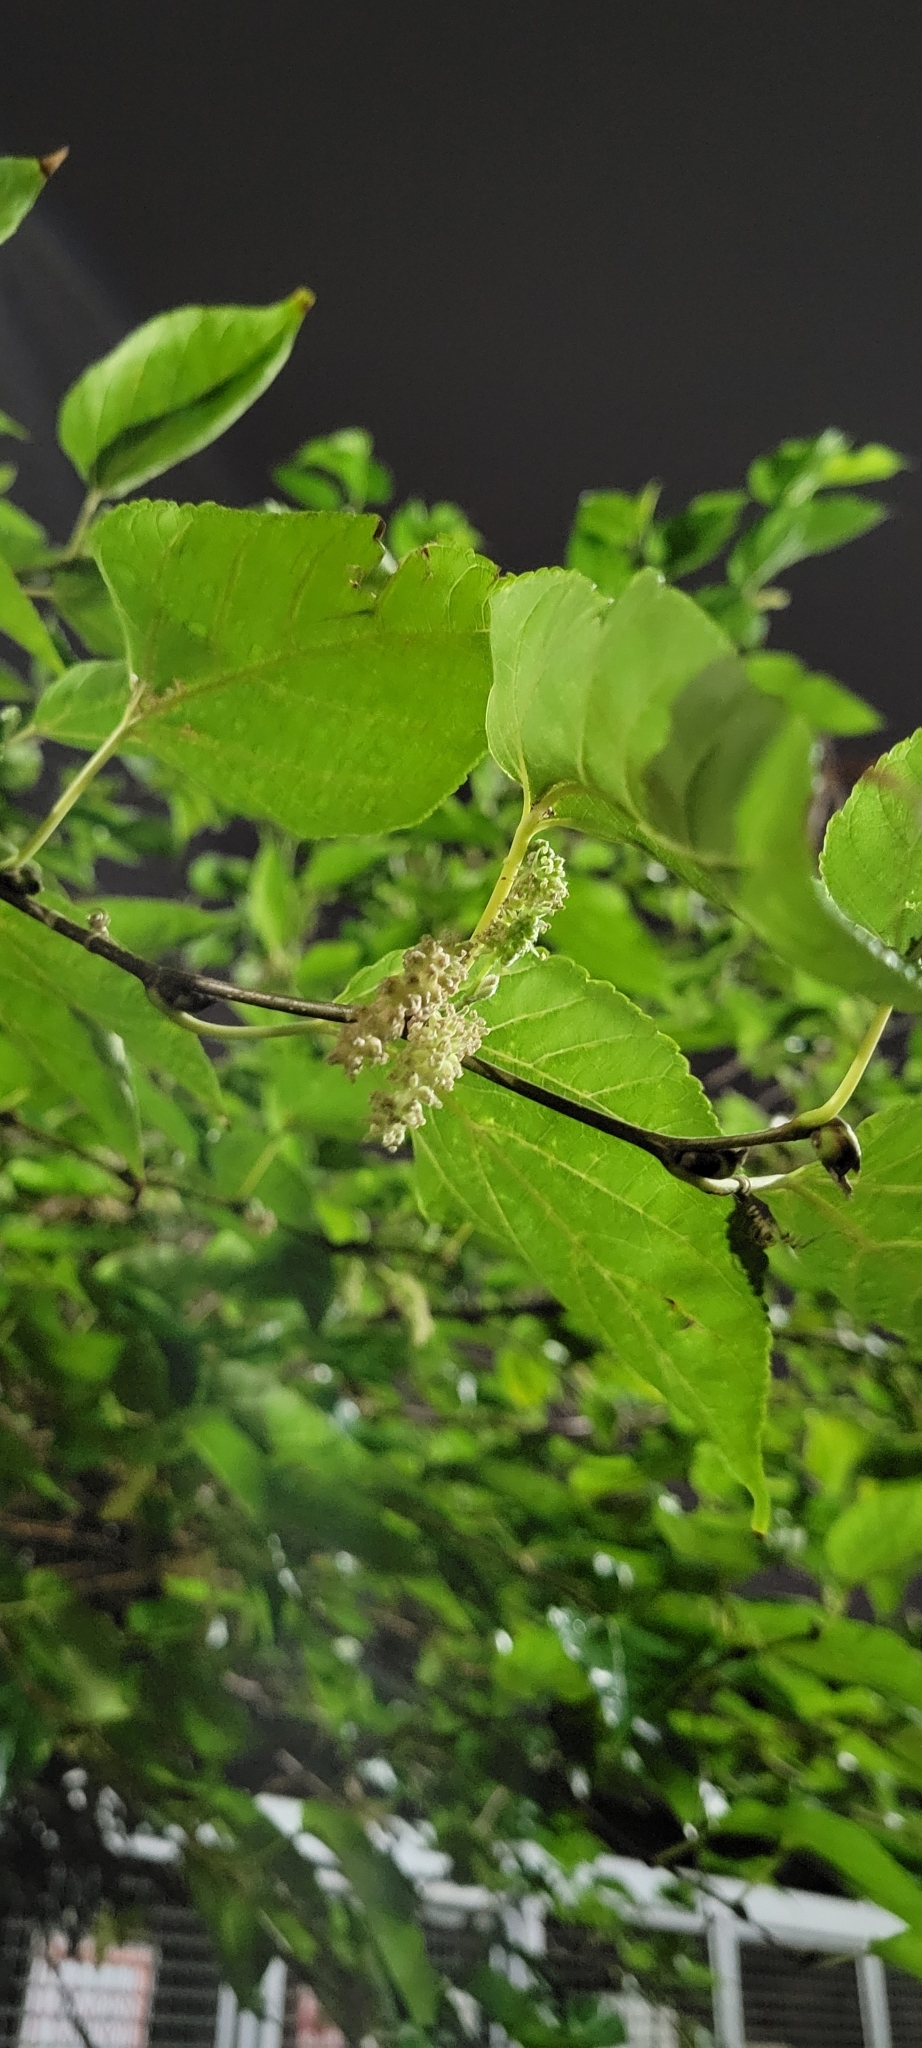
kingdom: Plantae
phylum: Tracheophyta
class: Magnoliopsida
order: Rosales
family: Moraceae
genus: Morus
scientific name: Morus indica
